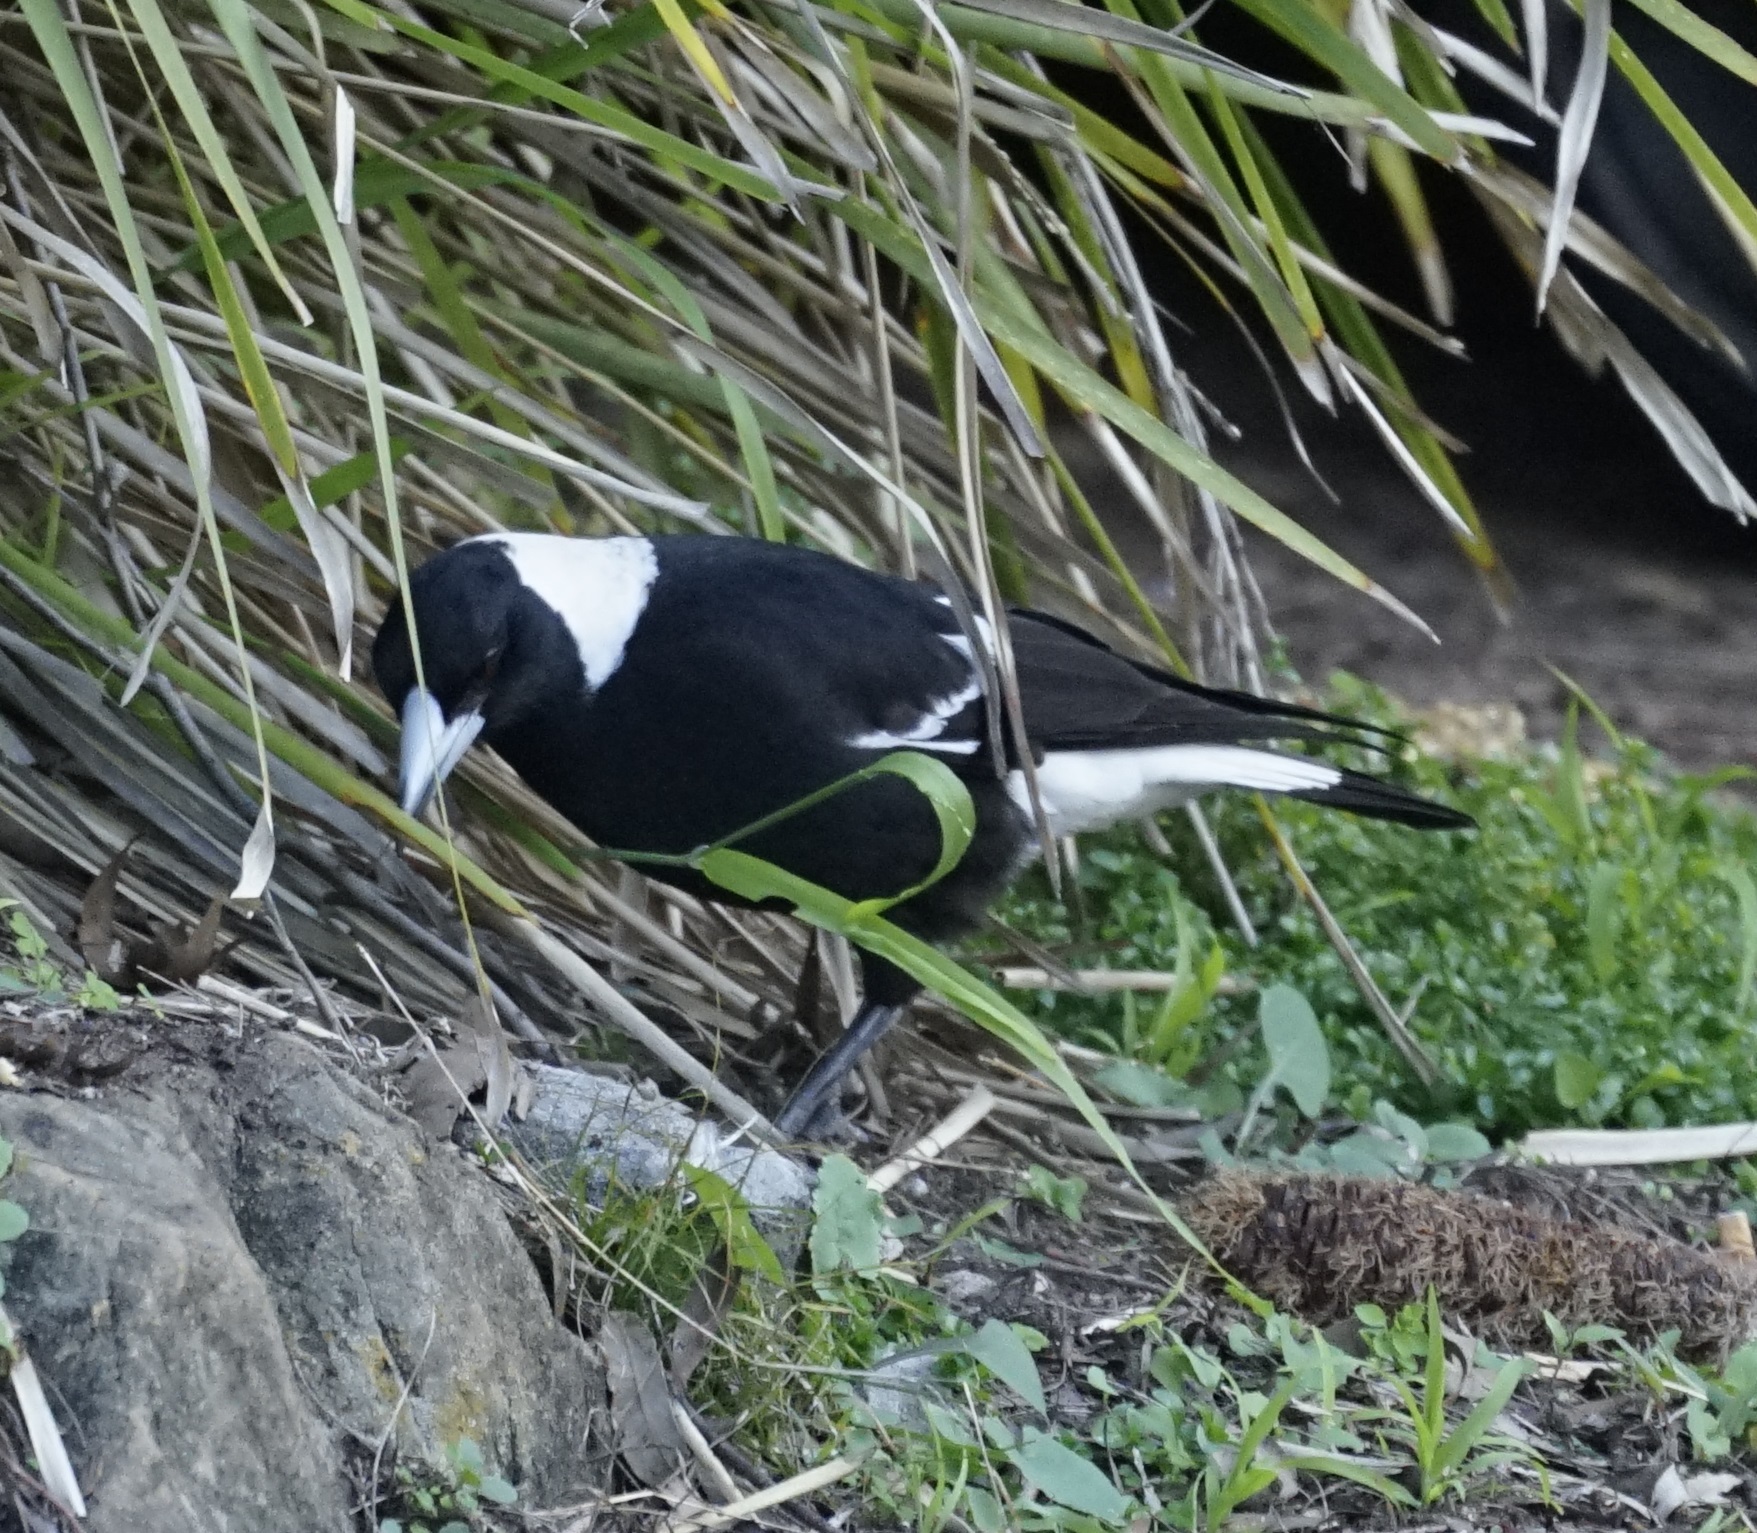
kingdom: Animalia
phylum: Chordata
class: Aves
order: Passeriformes
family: Cracticidae
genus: Gymnorhina
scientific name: Gymnorhina tibicen
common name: Australian magpie
